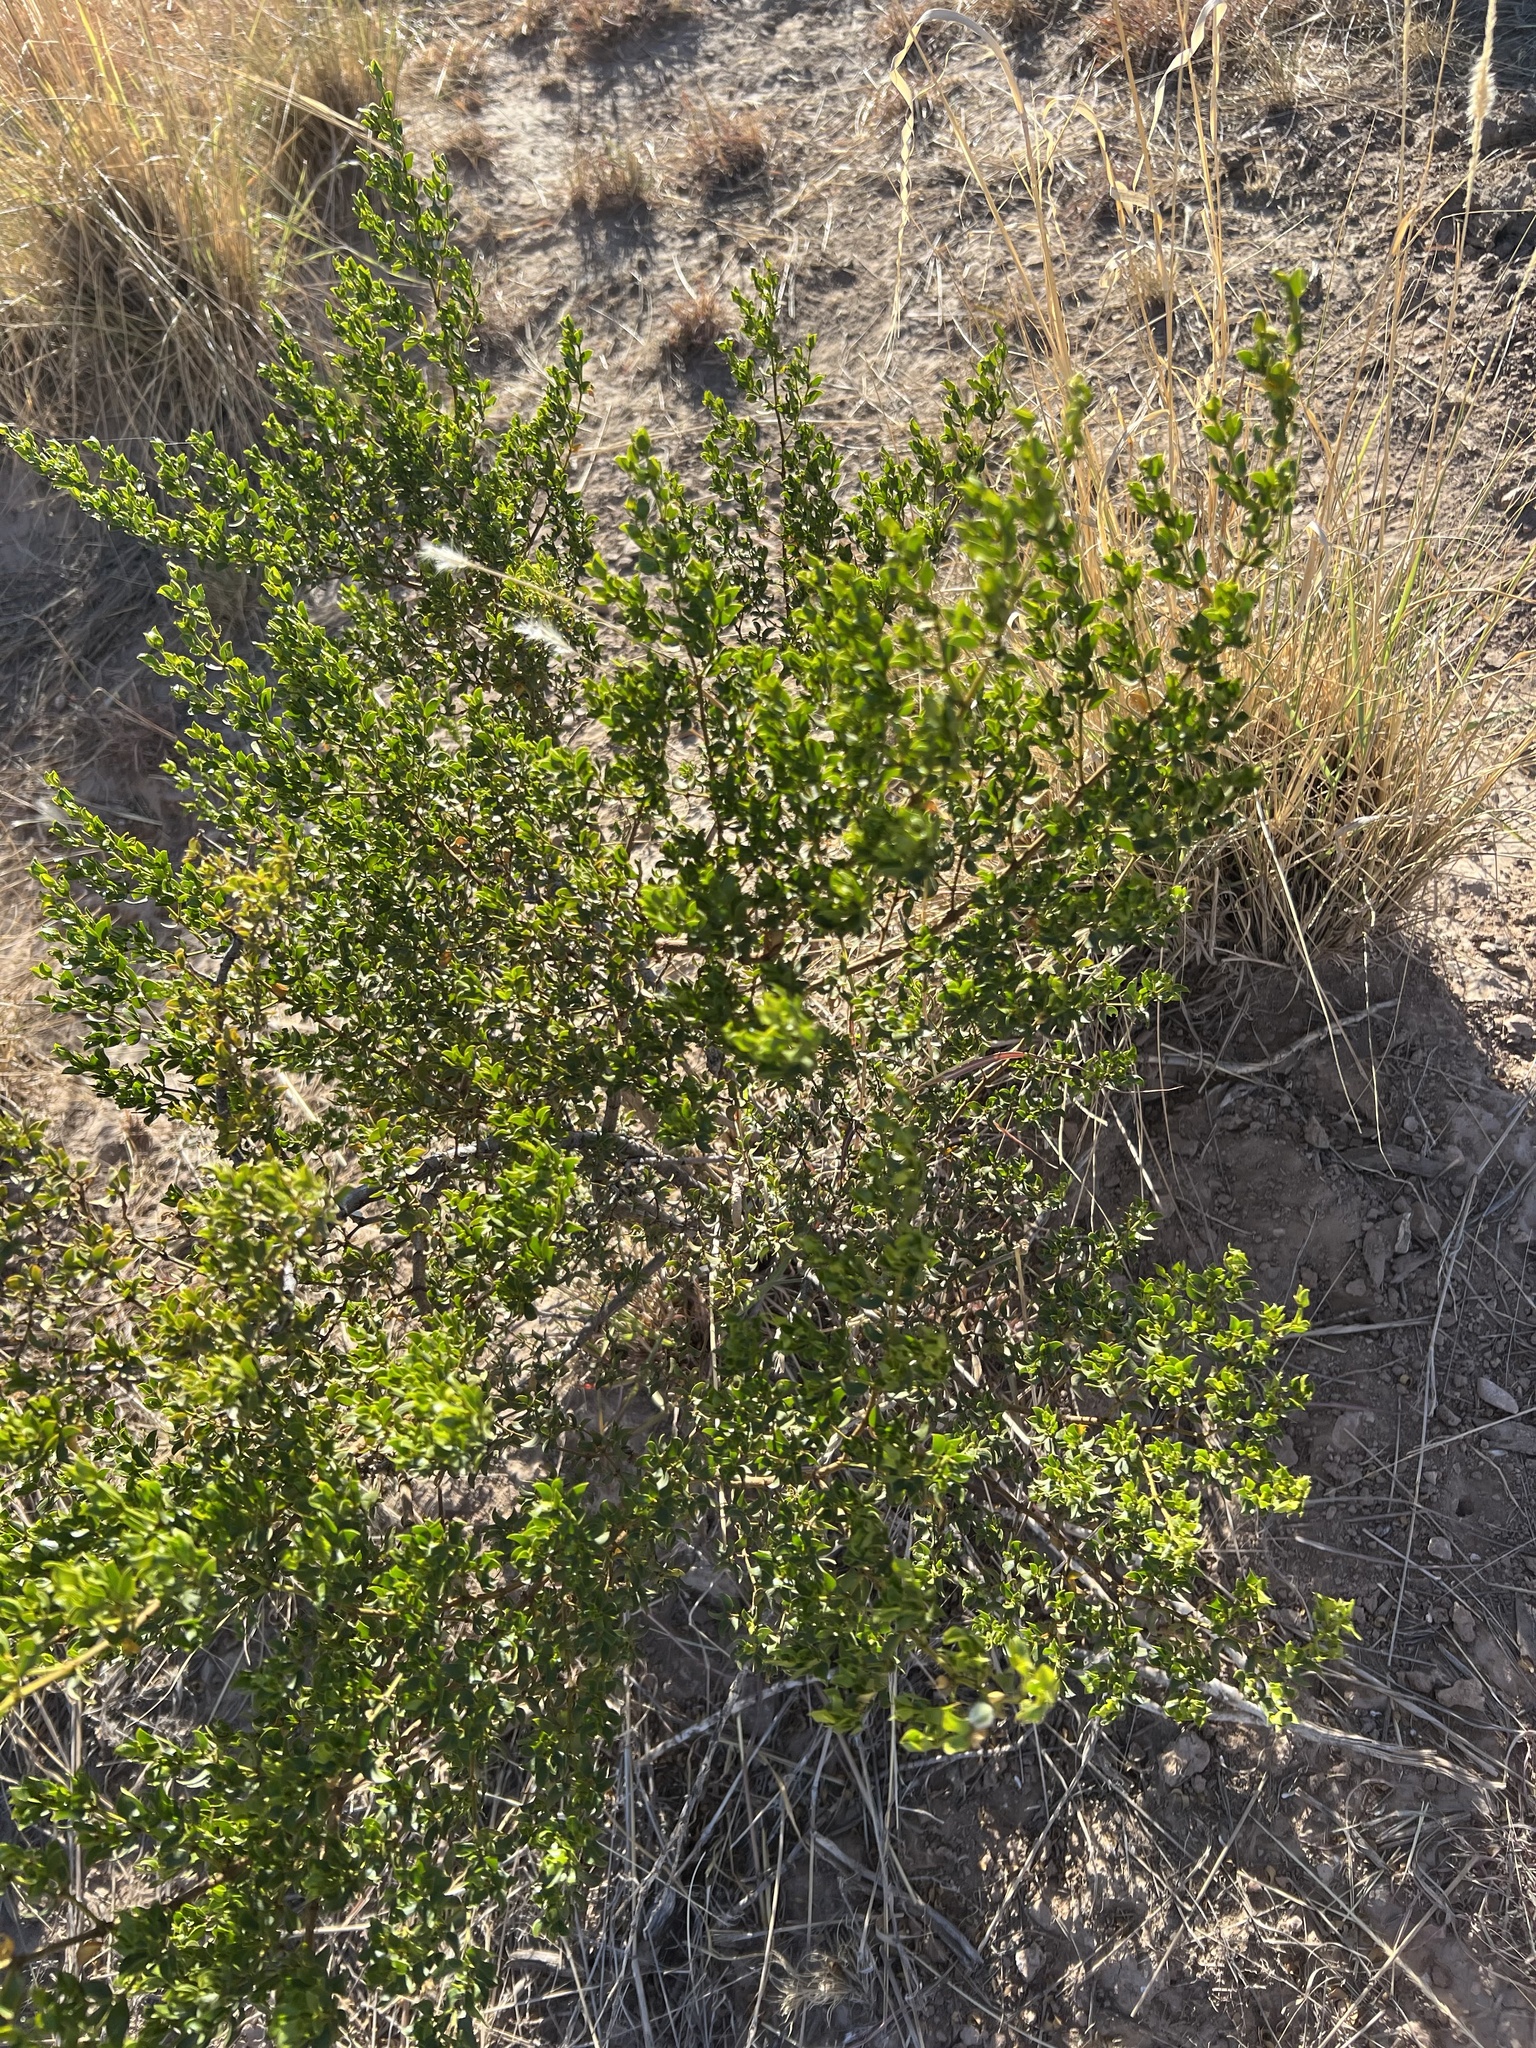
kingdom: Plantae
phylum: Tracheophyta
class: Magnoliopsida
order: Zygophyllales
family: Zygophyllaceae
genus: Larrea
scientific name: Larrea tridentata
